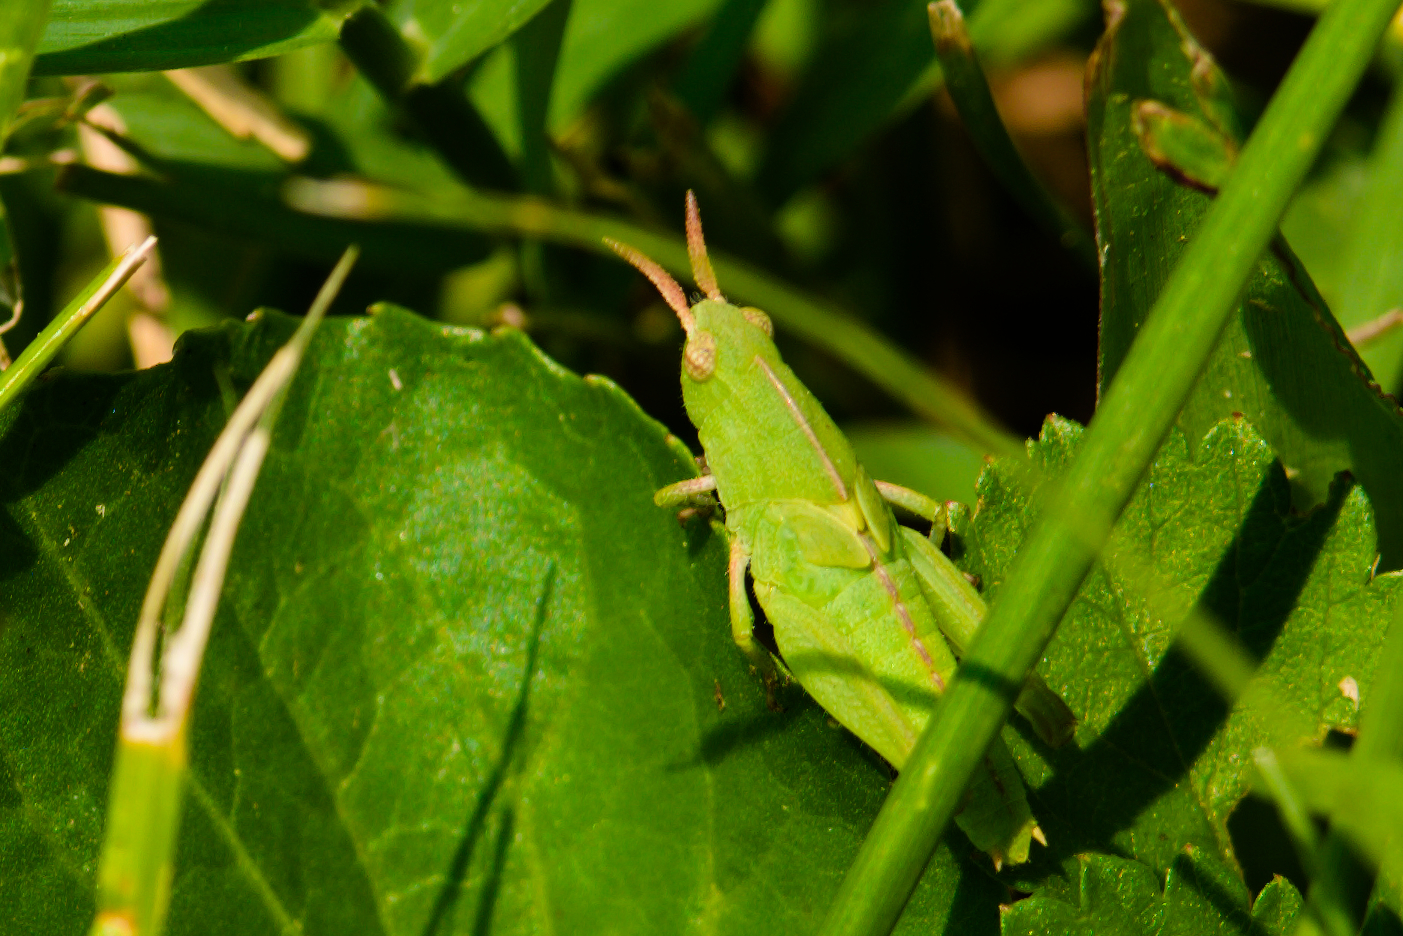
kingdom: Animalia
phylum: Arthropoda
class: Insecta
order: Orthoptera
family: Acrididae
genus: Chortophaga
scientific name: Chortophaga viridifasciata
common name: Green-striped grasshopper
